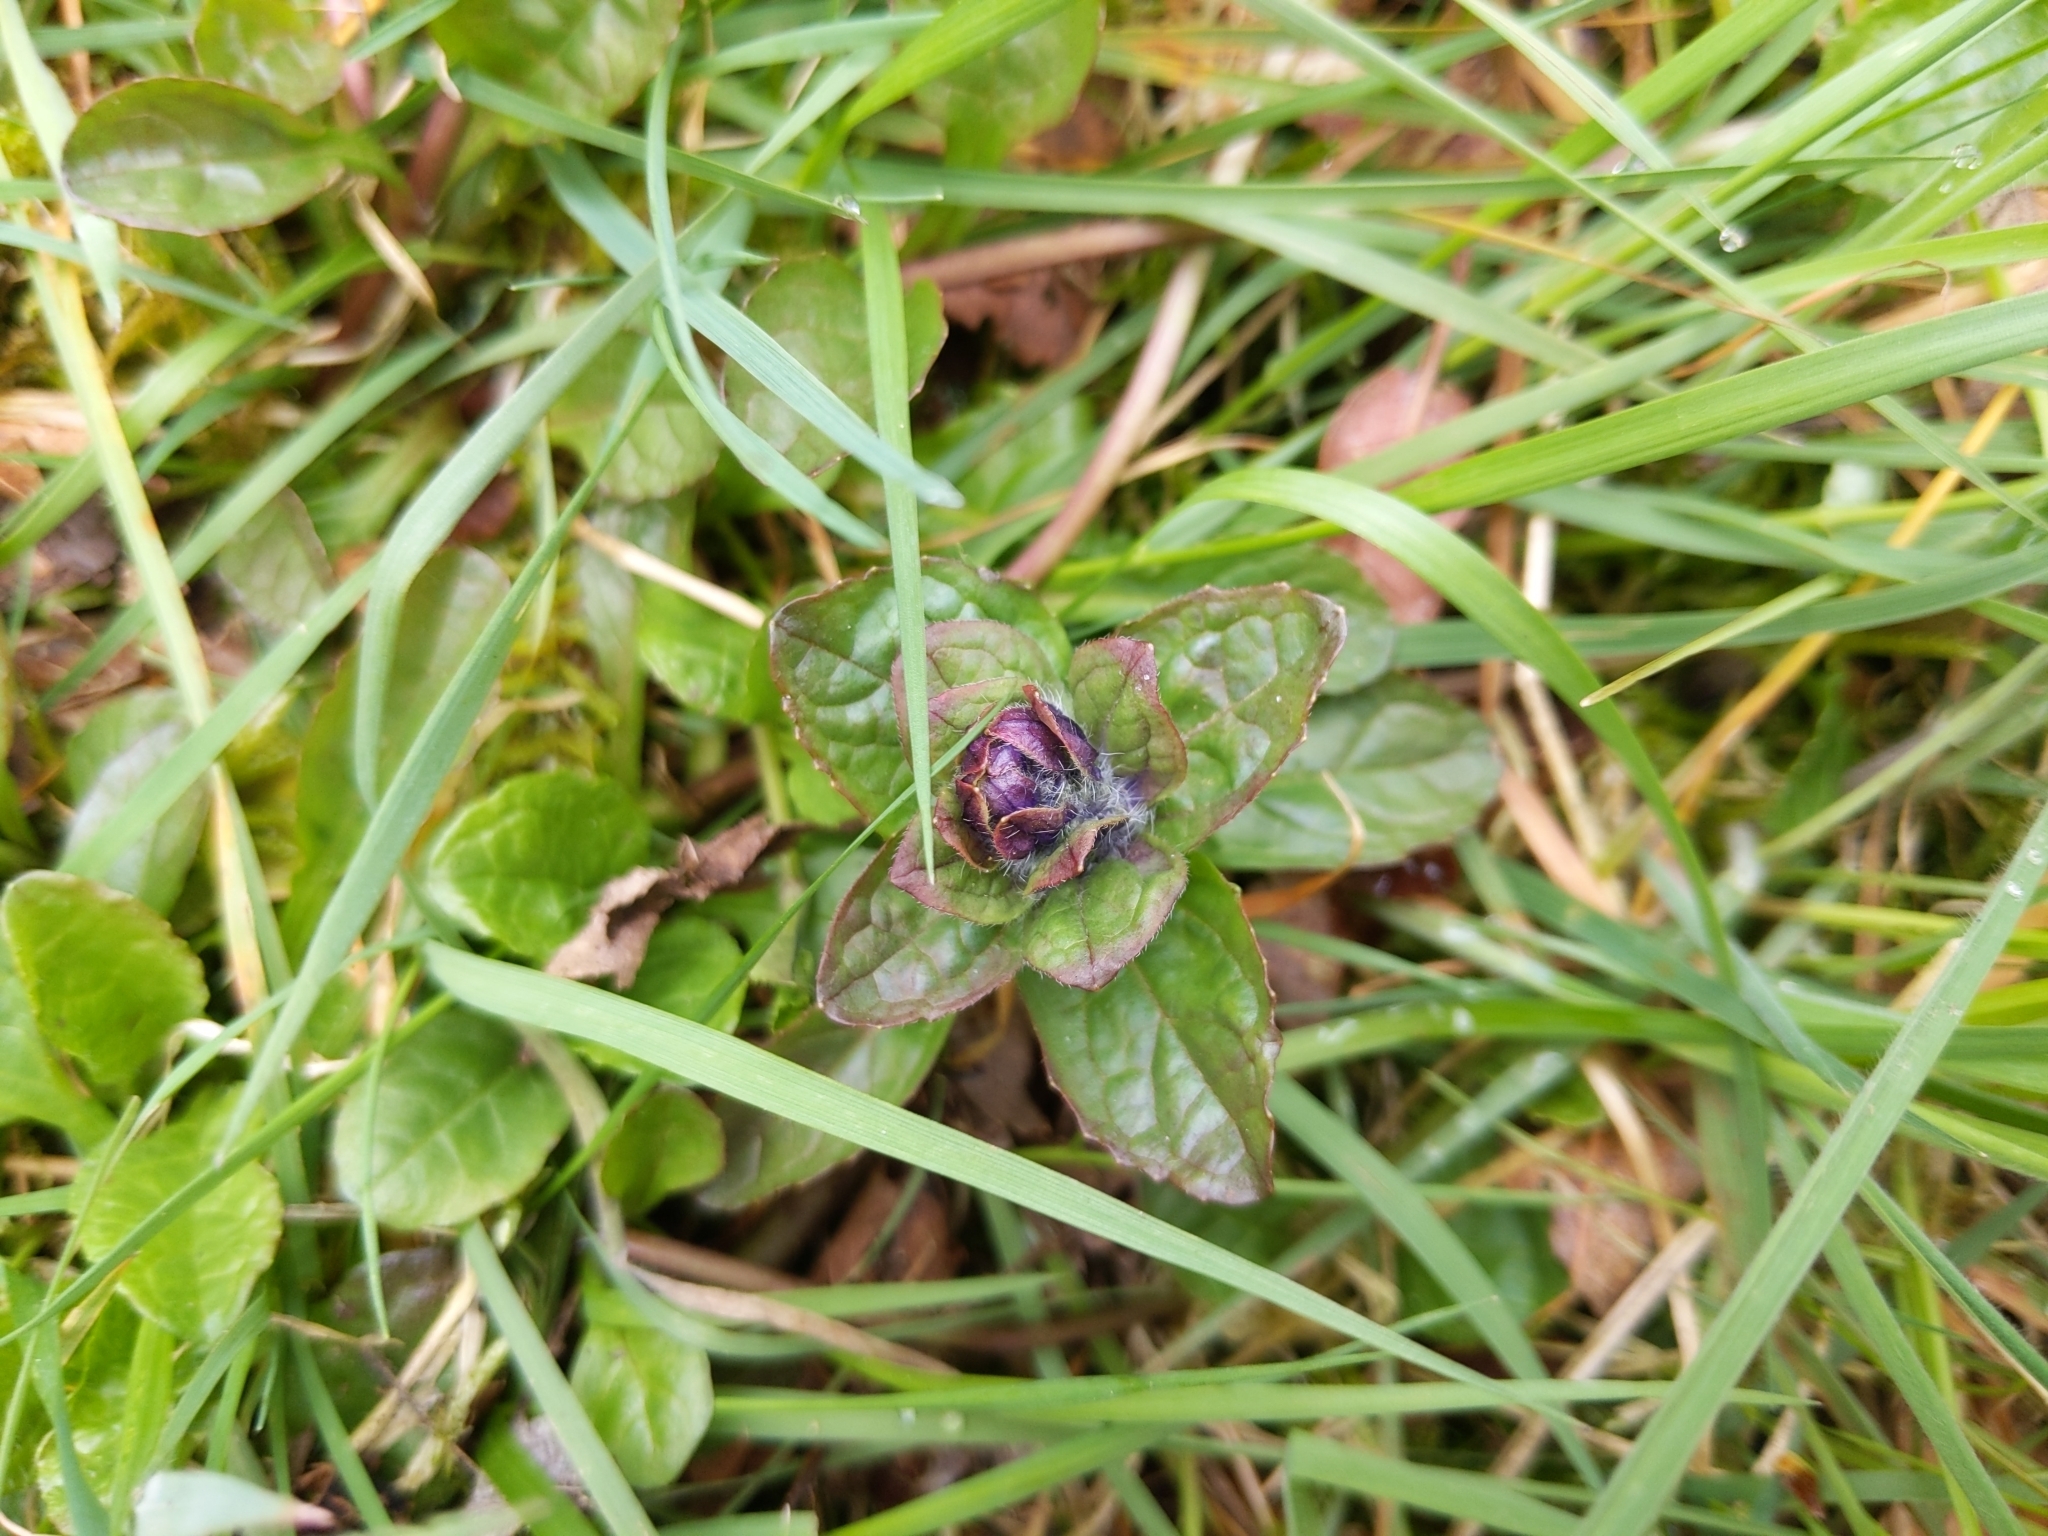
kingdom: Plantae
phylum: Tracheophyta
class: Magnoliopsida
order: Lamiales
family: Lamiaceae
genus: Ajuga
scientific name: Ajuga reptans
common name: Bugle
